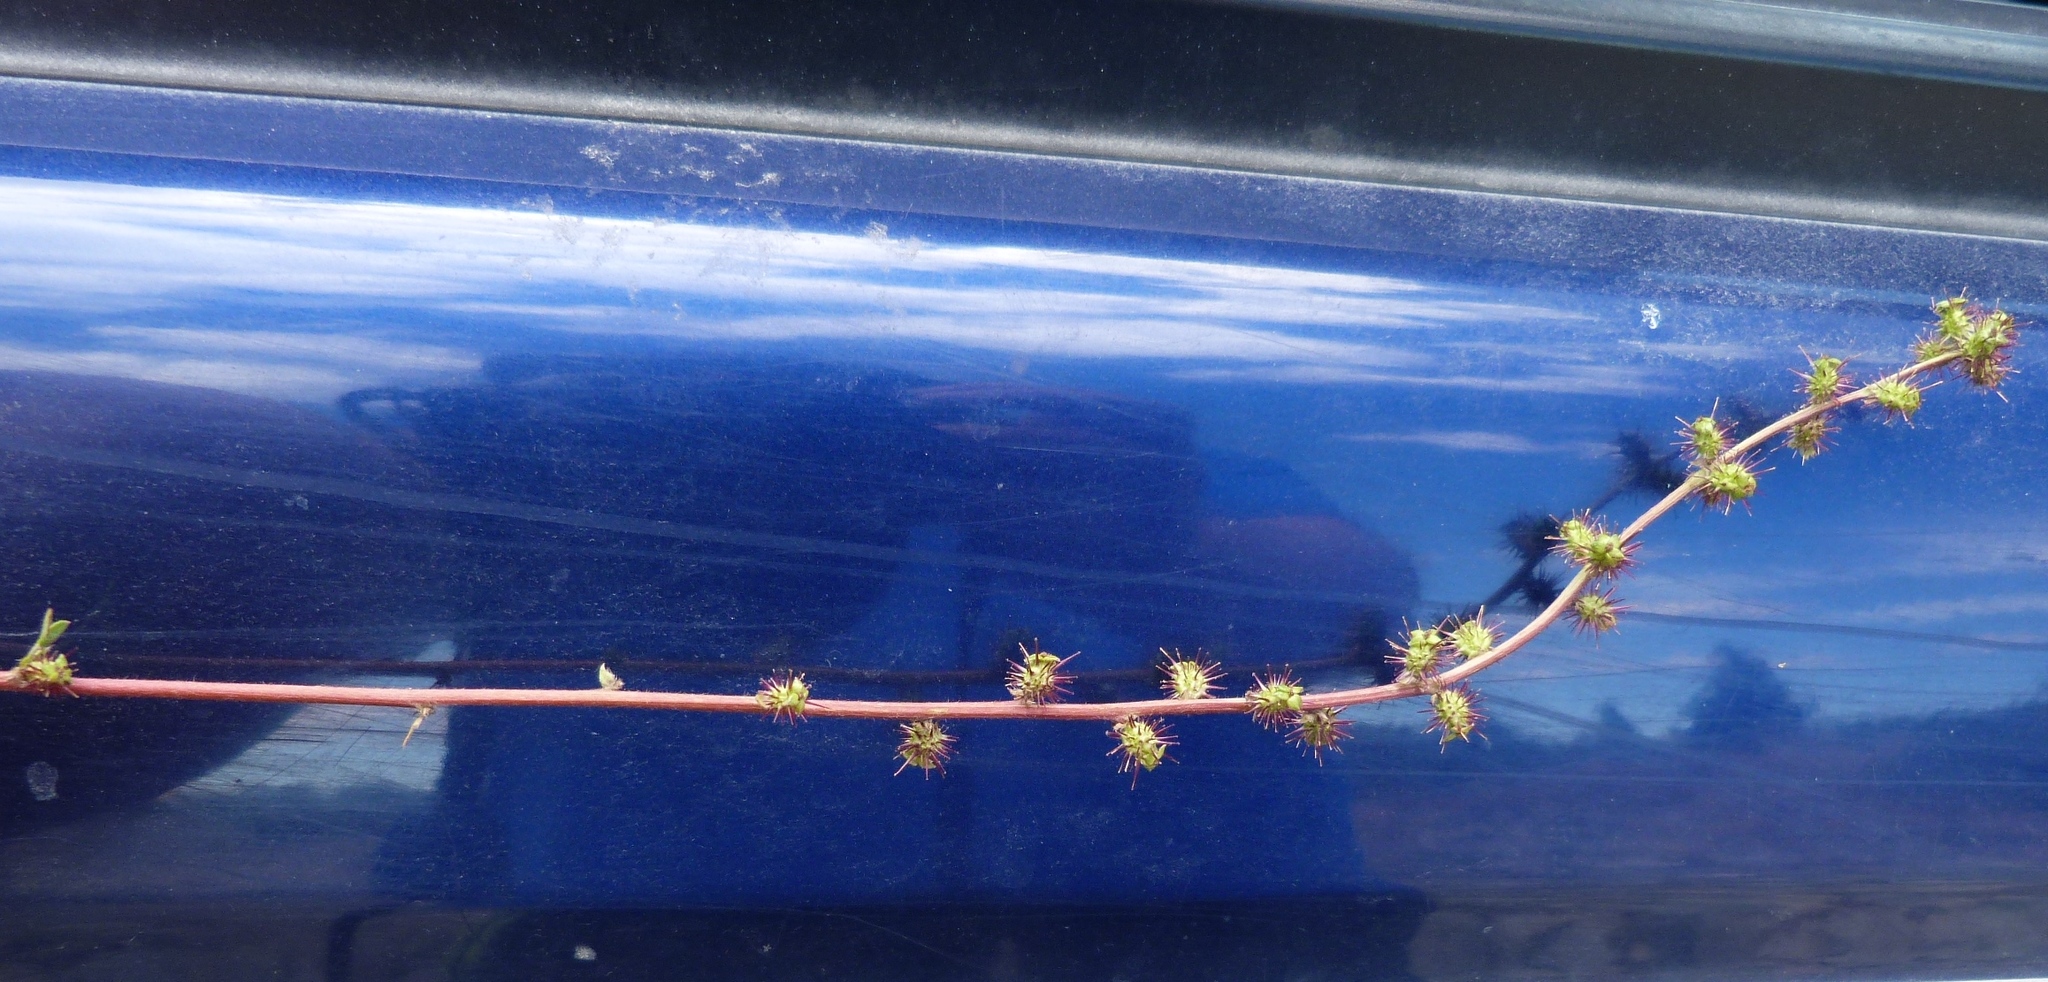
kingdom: Plantae
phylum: Tracheophyta
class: Magnoliopsida
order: Rosales
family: Rosaceae
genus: Acaena
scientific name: Acaena agnipila
